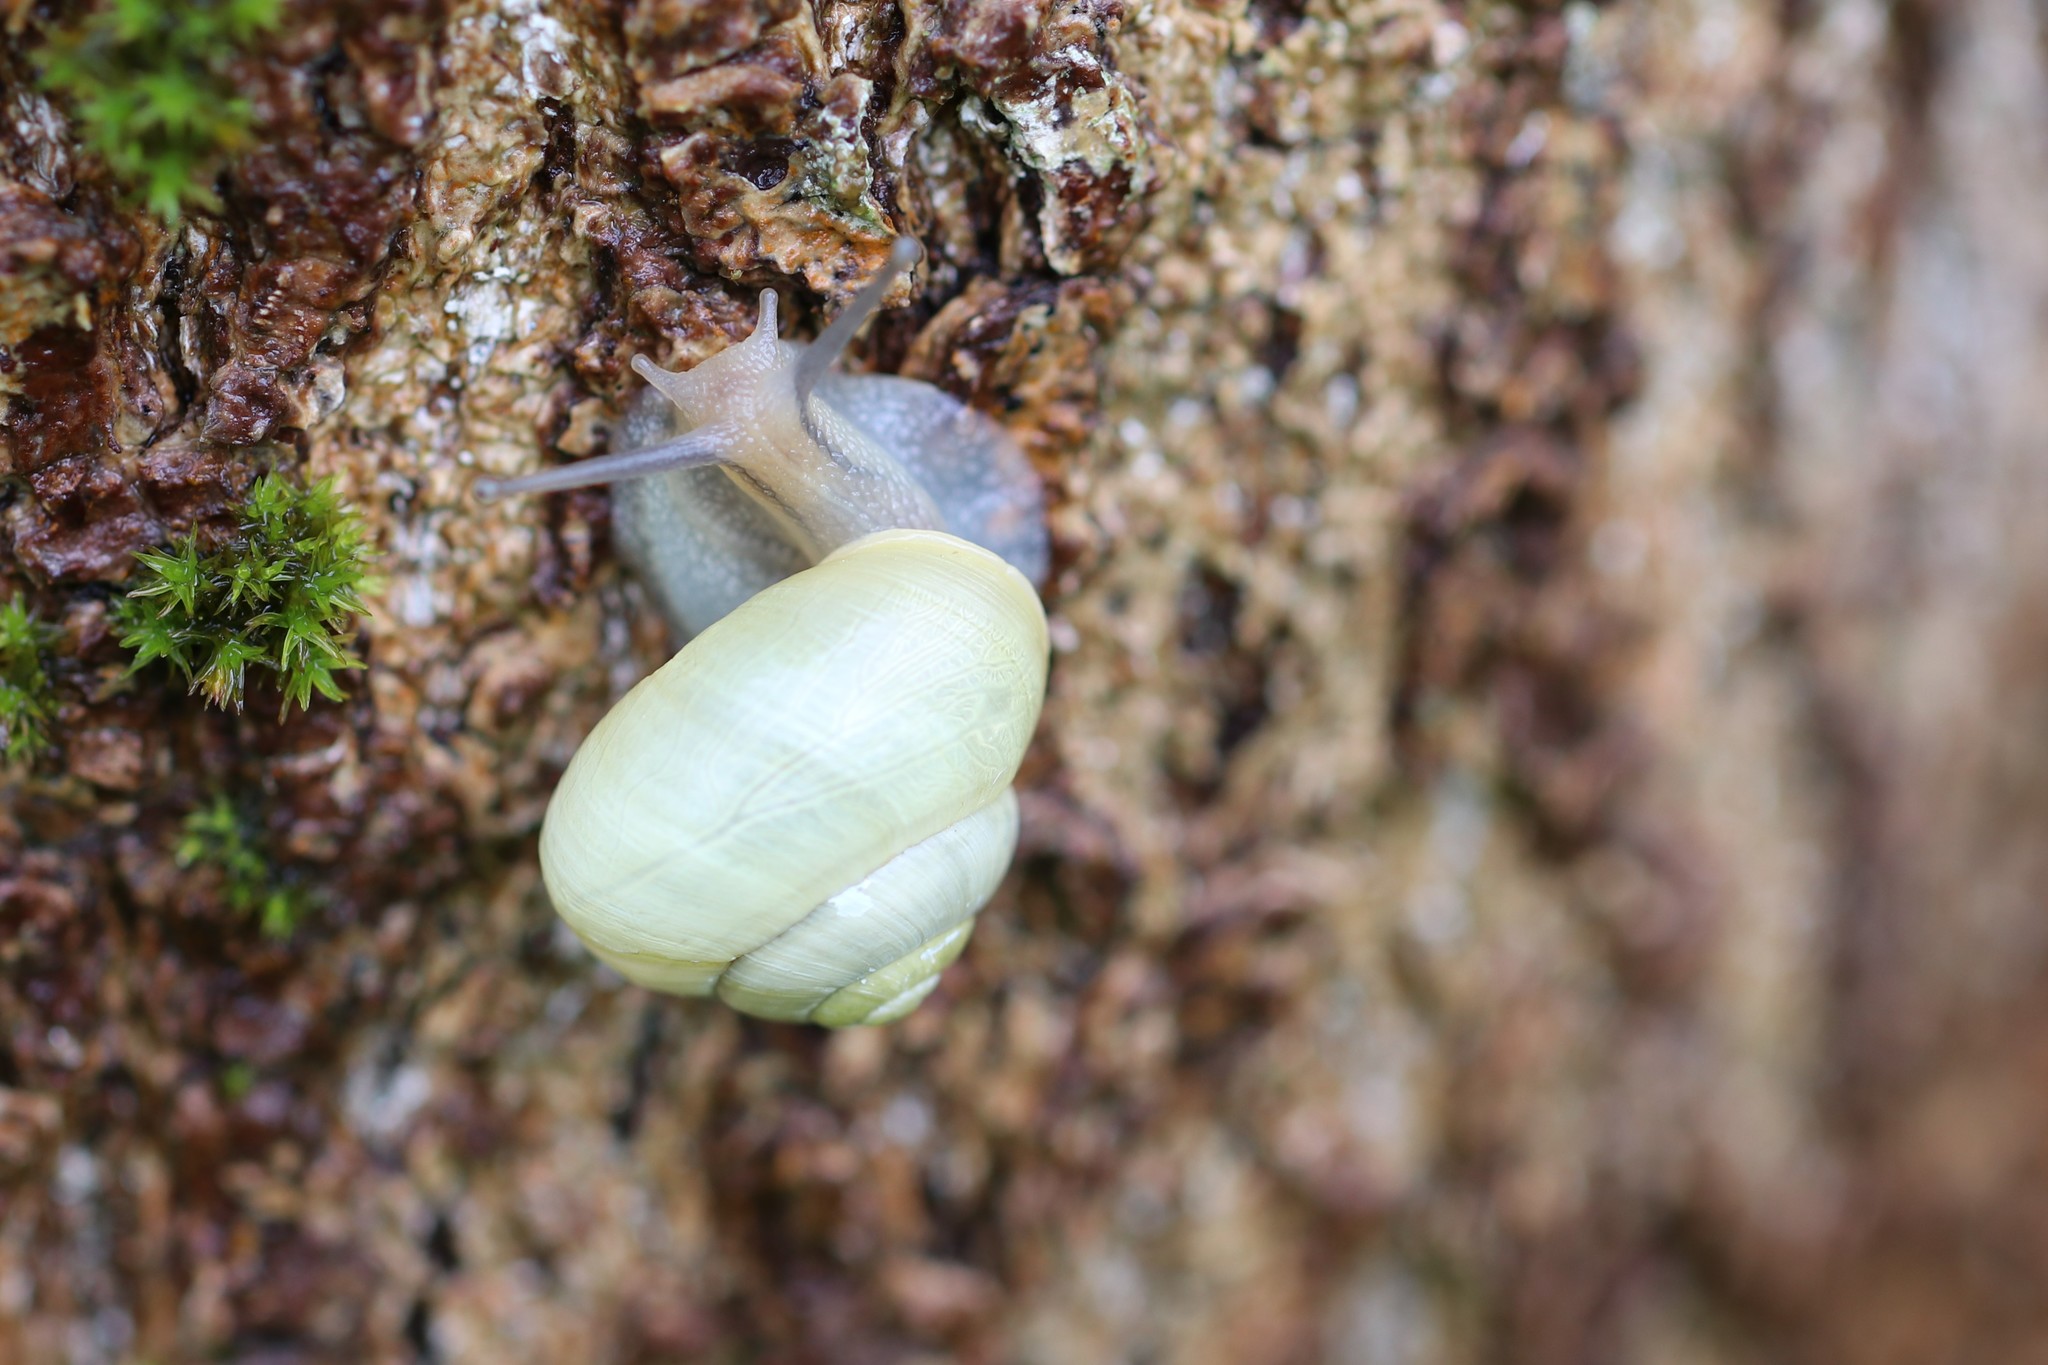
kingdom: Animalia
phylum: Mollusca
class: Gastropoda
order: Stylommatophora
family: Helicidae
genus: Cepaea
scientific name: Cepaea hortensis
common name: White-lip gardensnail
